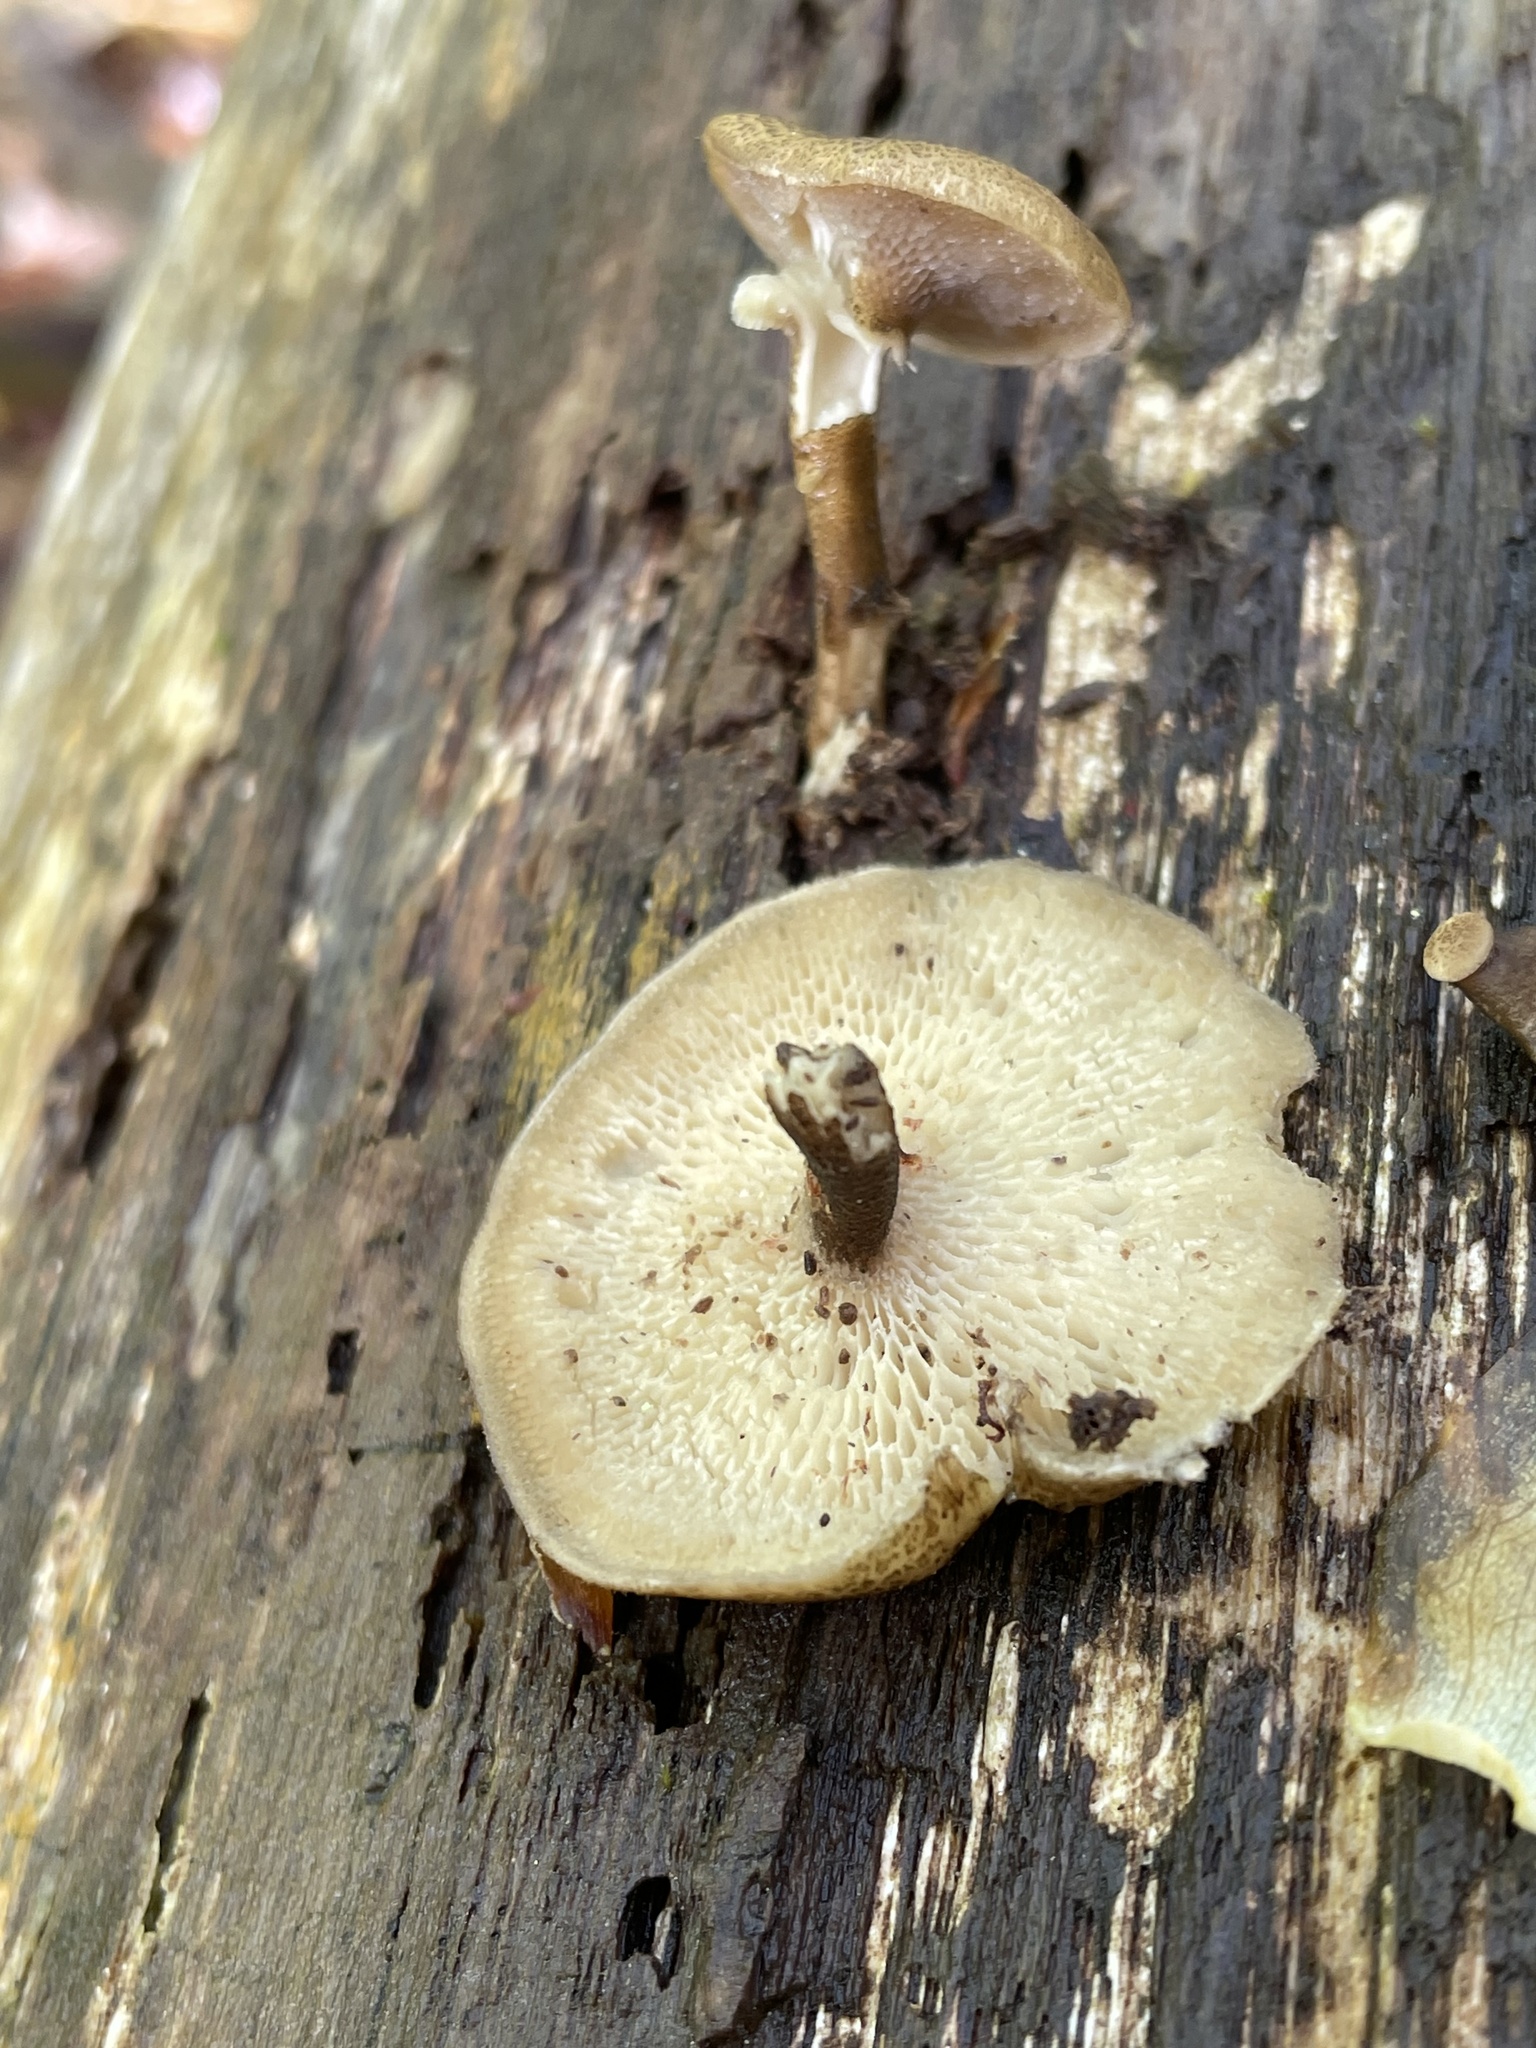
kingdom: Fungi
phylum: Basidiomycota
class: Agaricomycetes
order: Polyporales
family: Polyporaceae
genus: Lentinus
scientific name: Lentinus arcularius
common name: Spring polypore
